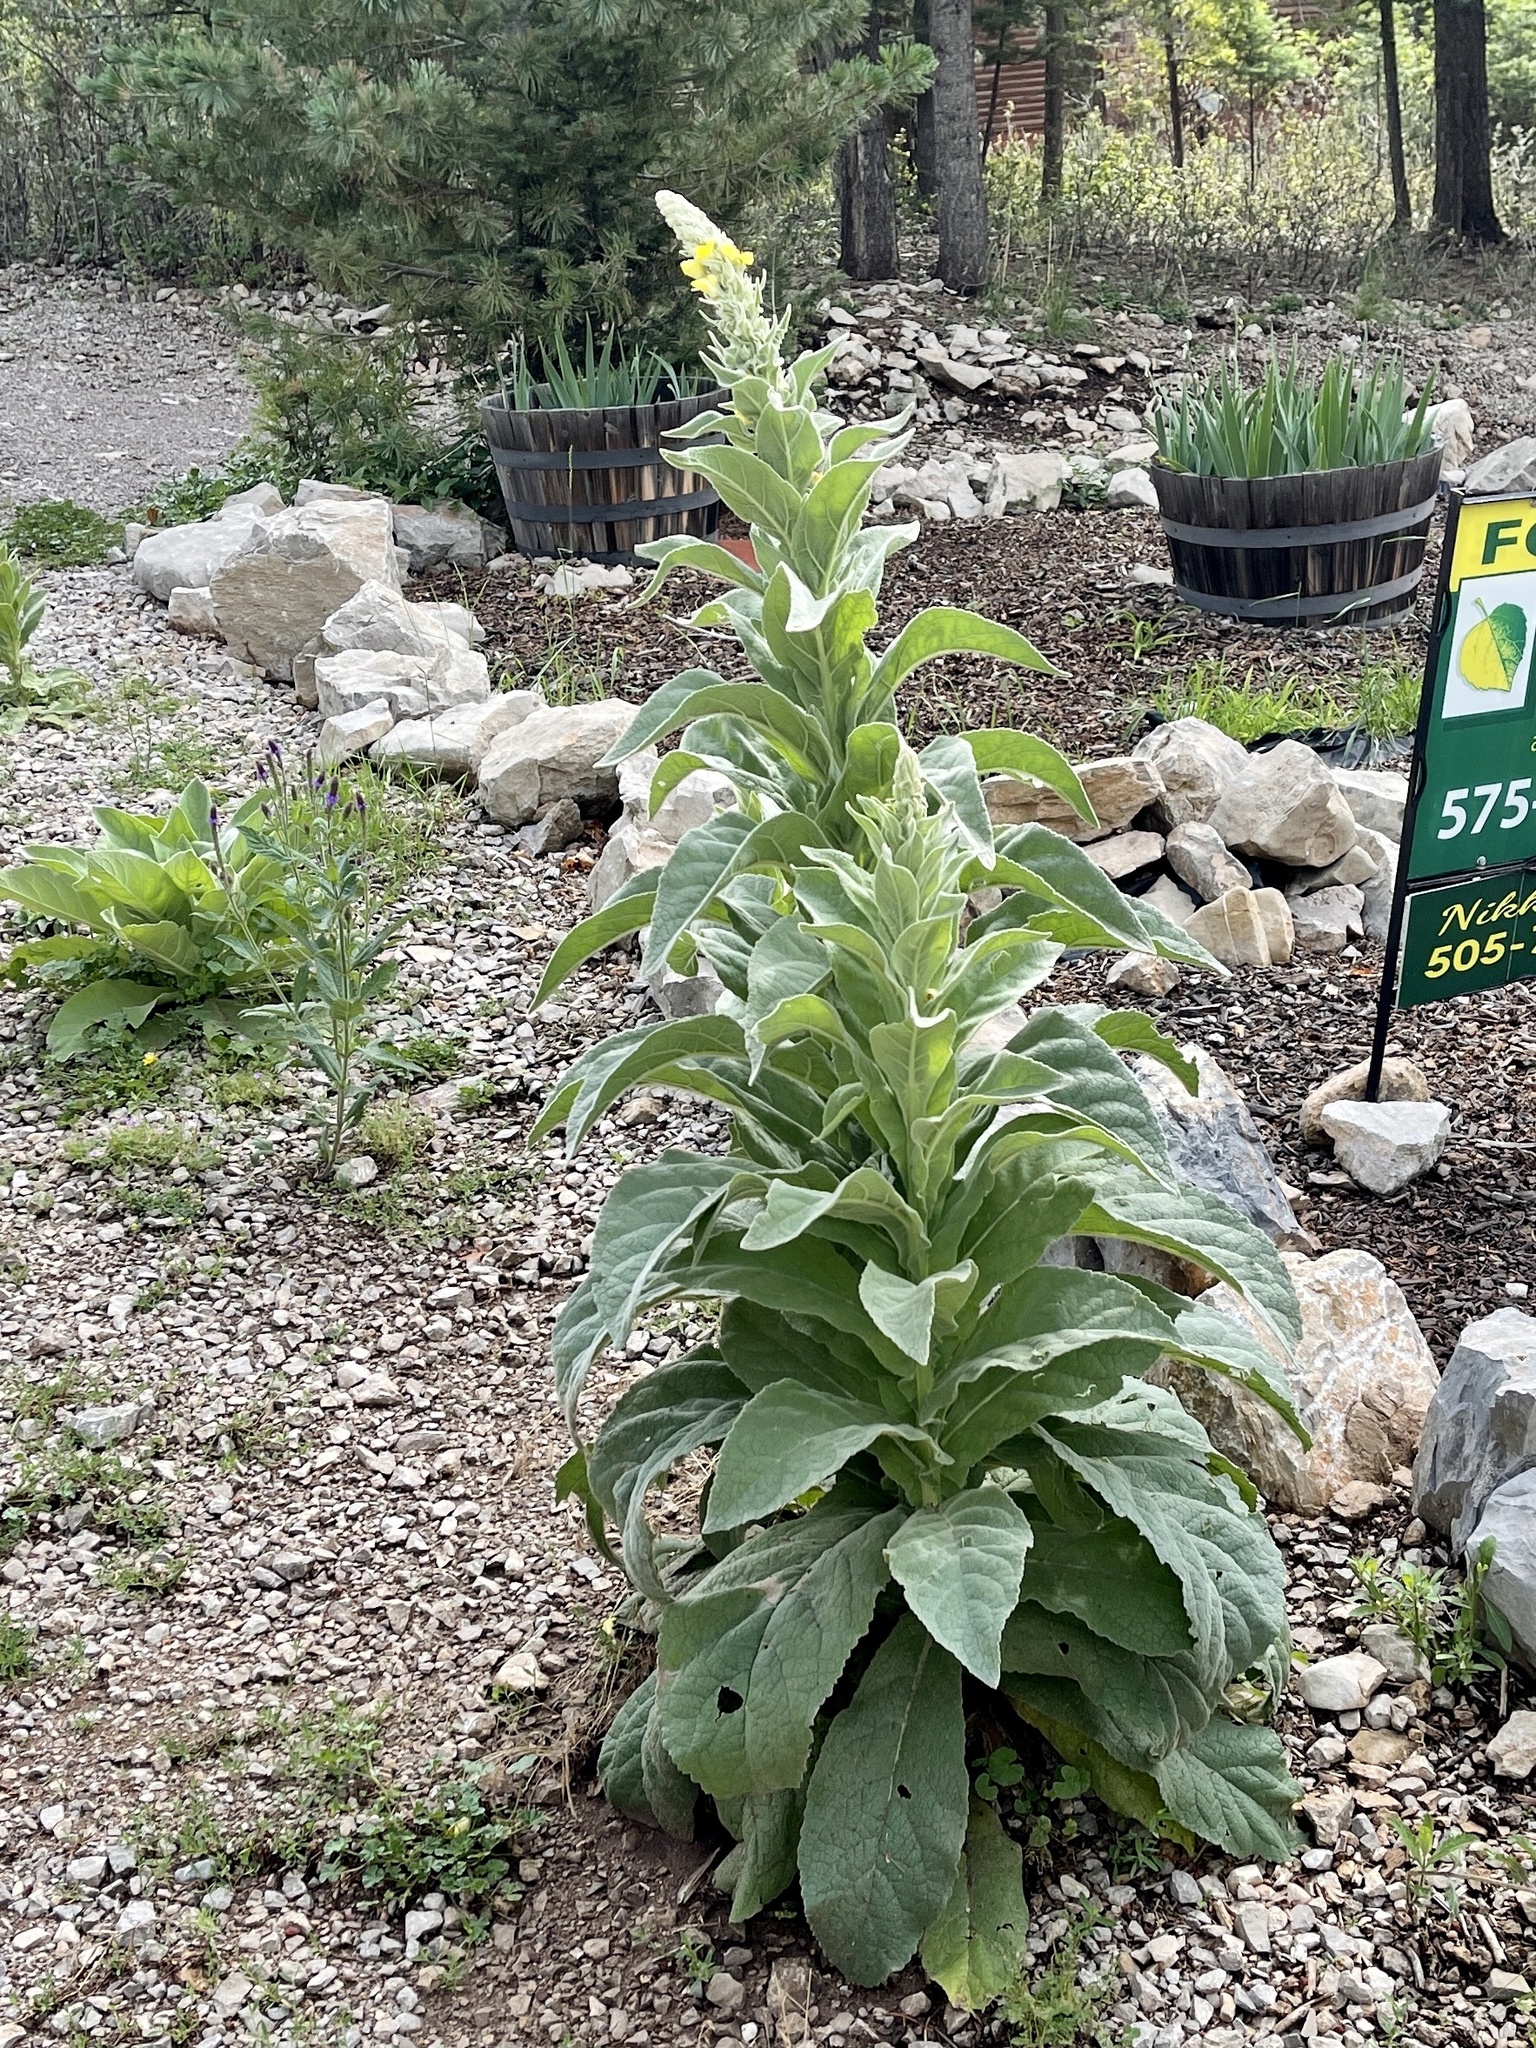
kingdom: Plantae
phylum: Tracheophyta
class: Magnoliopsida
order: Lamiales
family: Scrophulariaceae
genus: Verbascum
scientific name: Verbascum thapsus
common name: Common mullein
